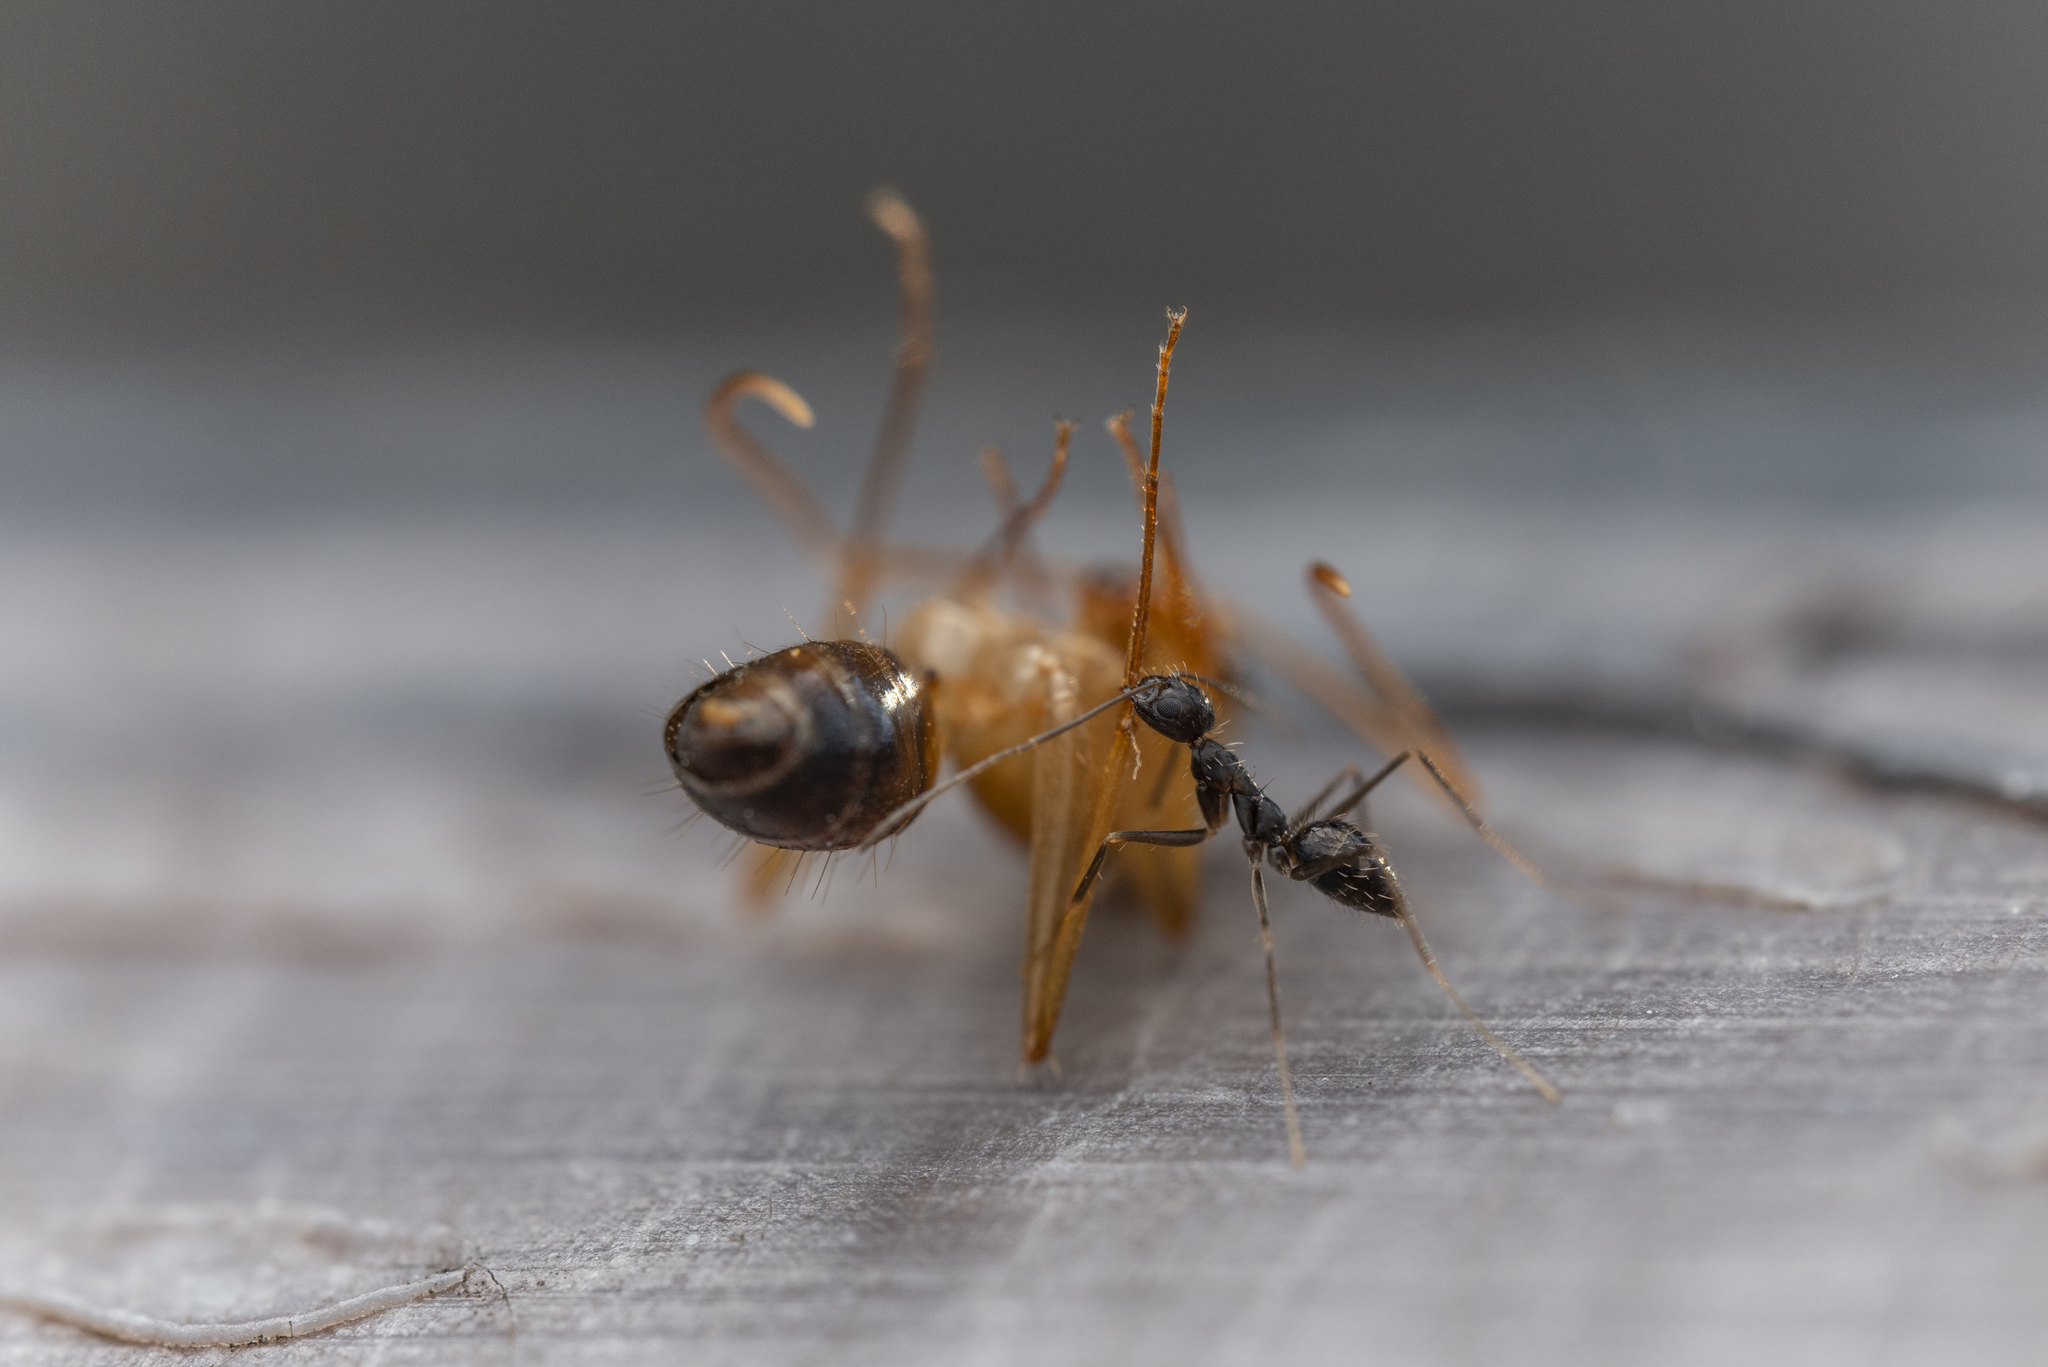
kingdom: Animalia
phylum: Arthropoda
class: Insecta
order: Hymenoptera
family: Formicidae
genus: Paratrechina
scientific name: Paratrechina longicornis
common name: Longhorned crazy ant
